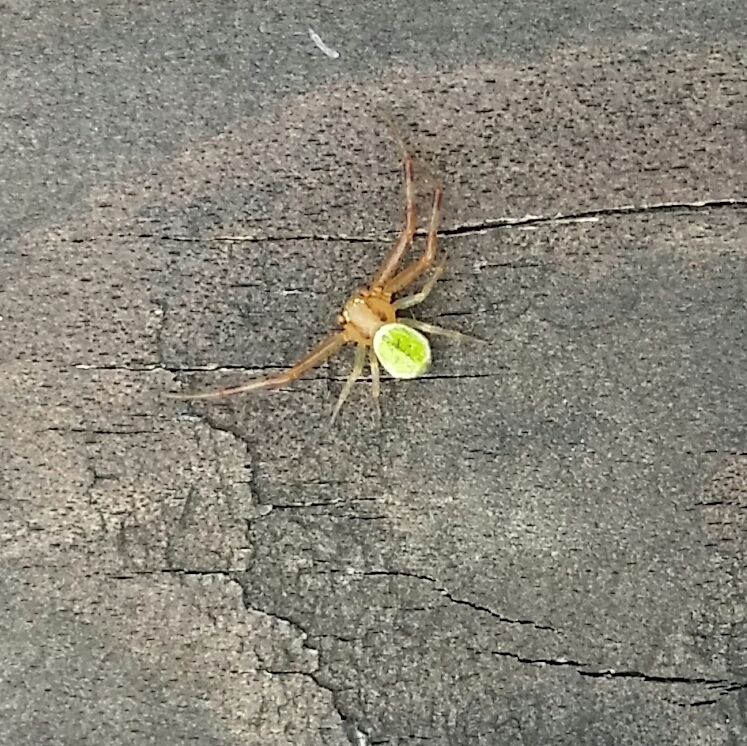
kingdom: Animalia
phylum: Arthropoda
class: Arachnida
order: Araneae
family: Thomisidae
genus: Ebrechtella
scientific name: Ebrechtella tricuspidata
